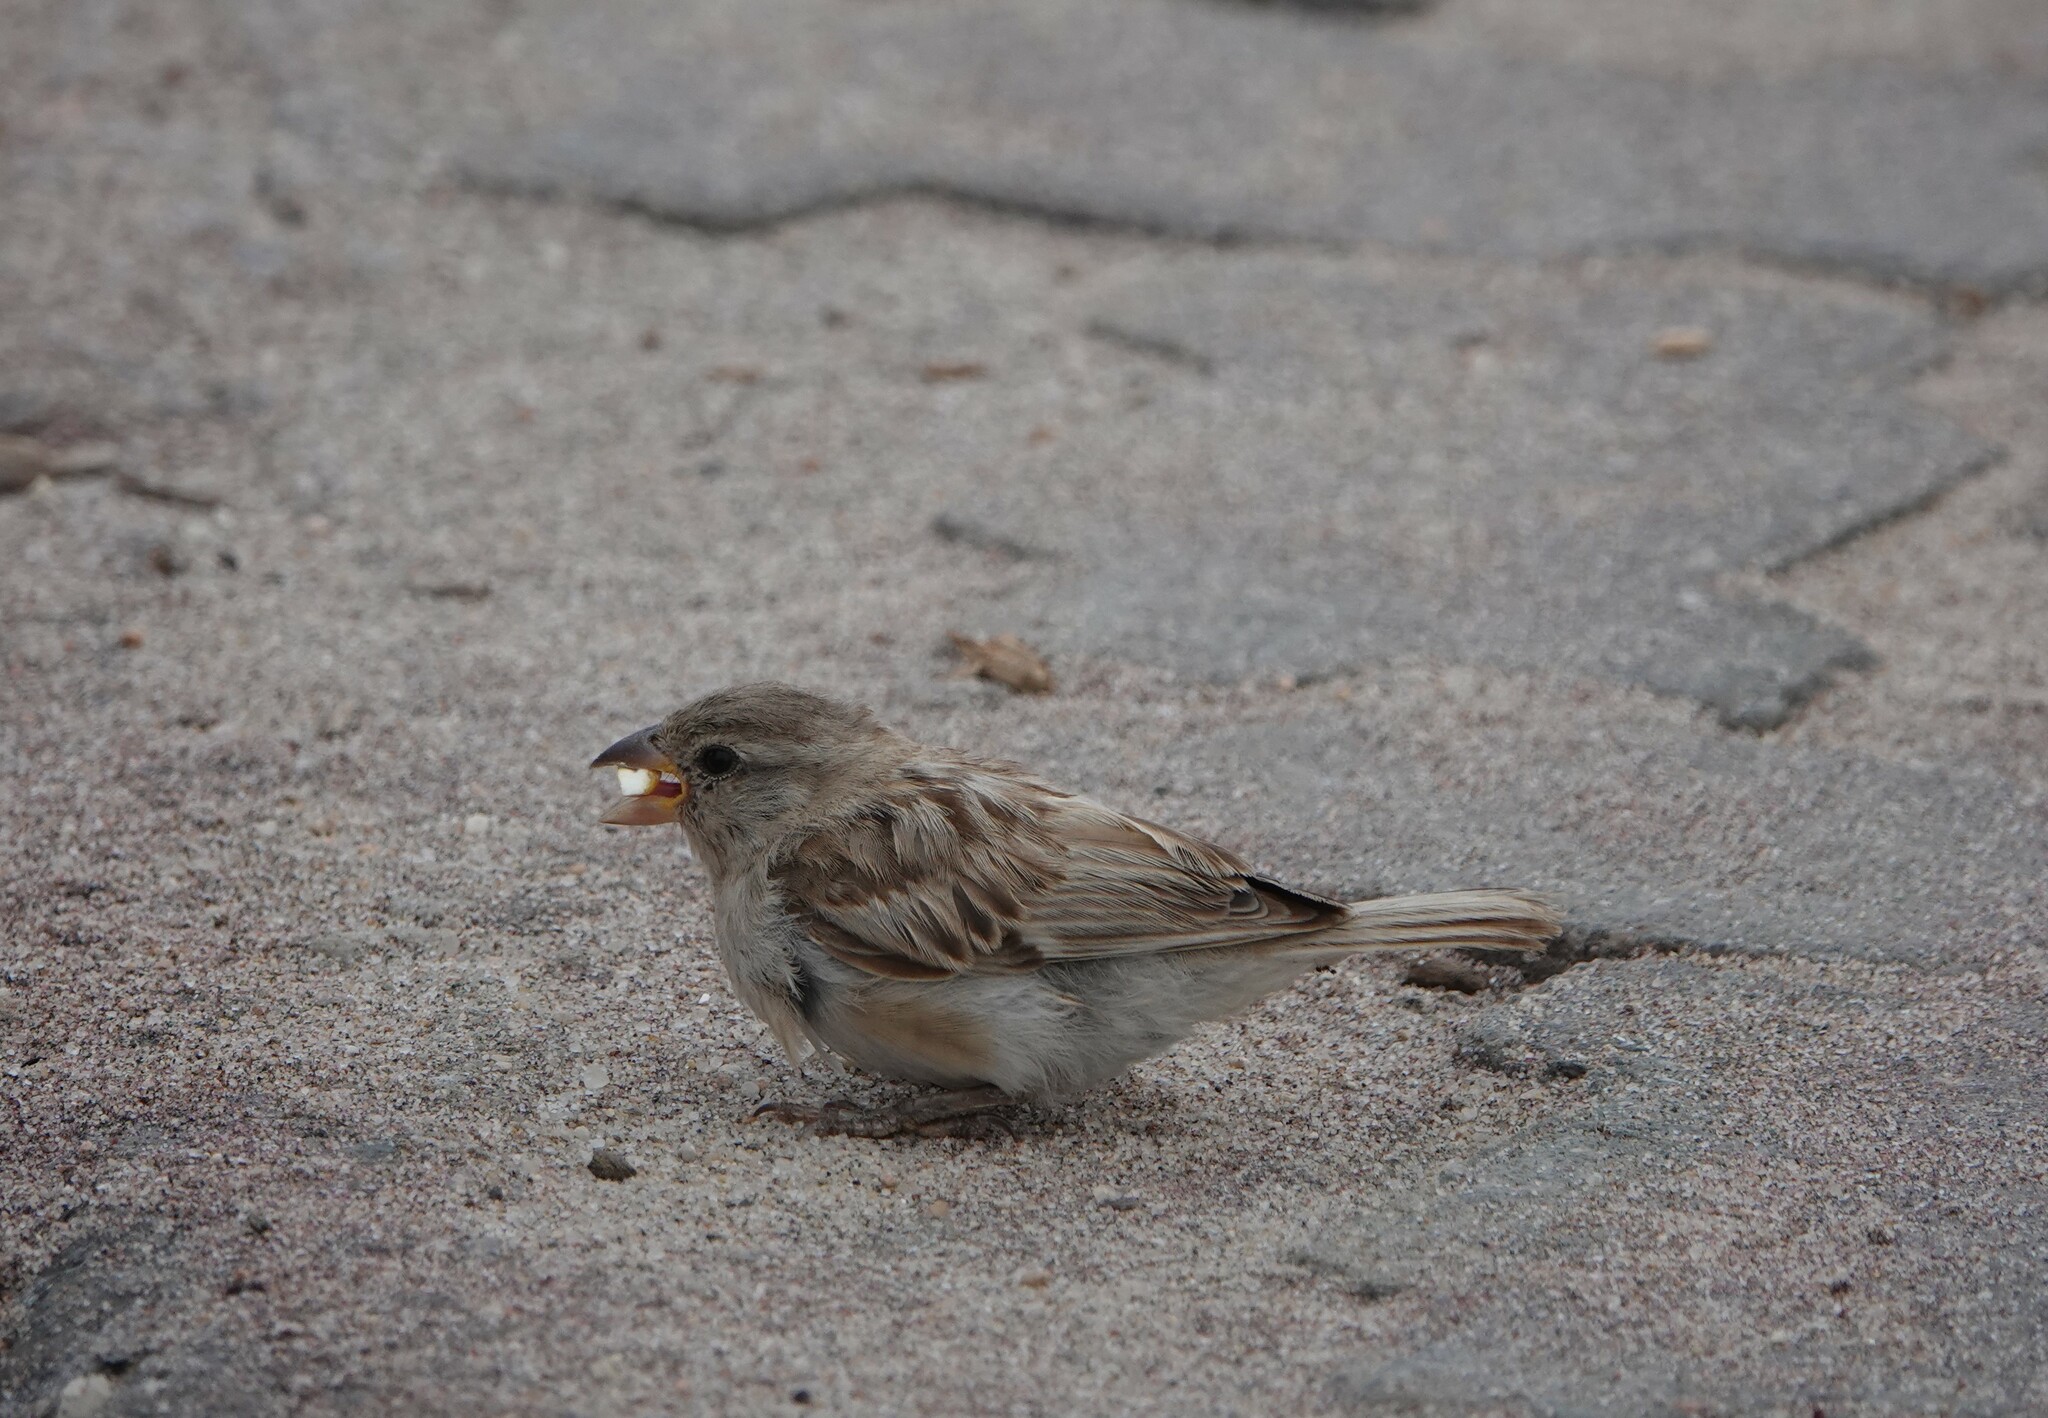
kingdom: Animalia
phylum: Chordata
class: Aves
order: Passeriformes
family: Passeridae
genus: Passer
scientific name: Passer domesticus
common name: House sparrow
